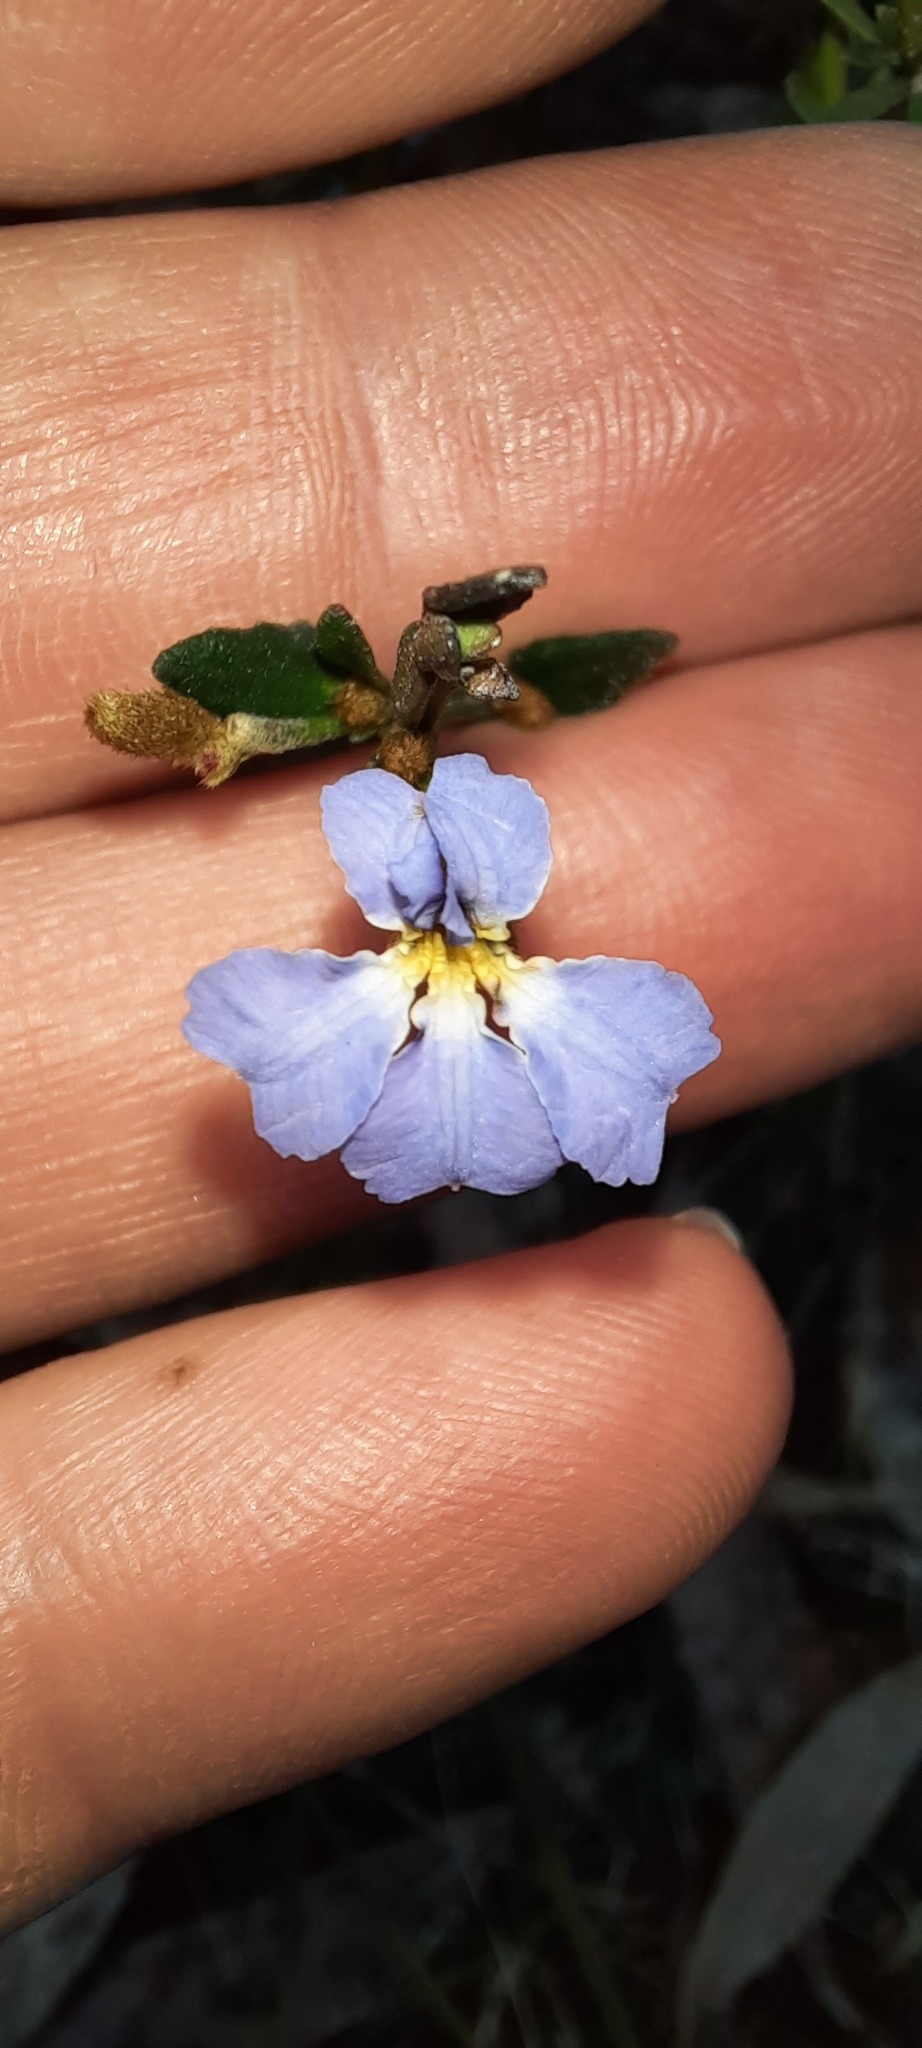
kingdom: Plantae
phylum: Tracheophyta
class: Magnoliopsida
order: Asterales
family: Goodeniaceae
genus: Dampiera
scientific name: Dampiera stricta
